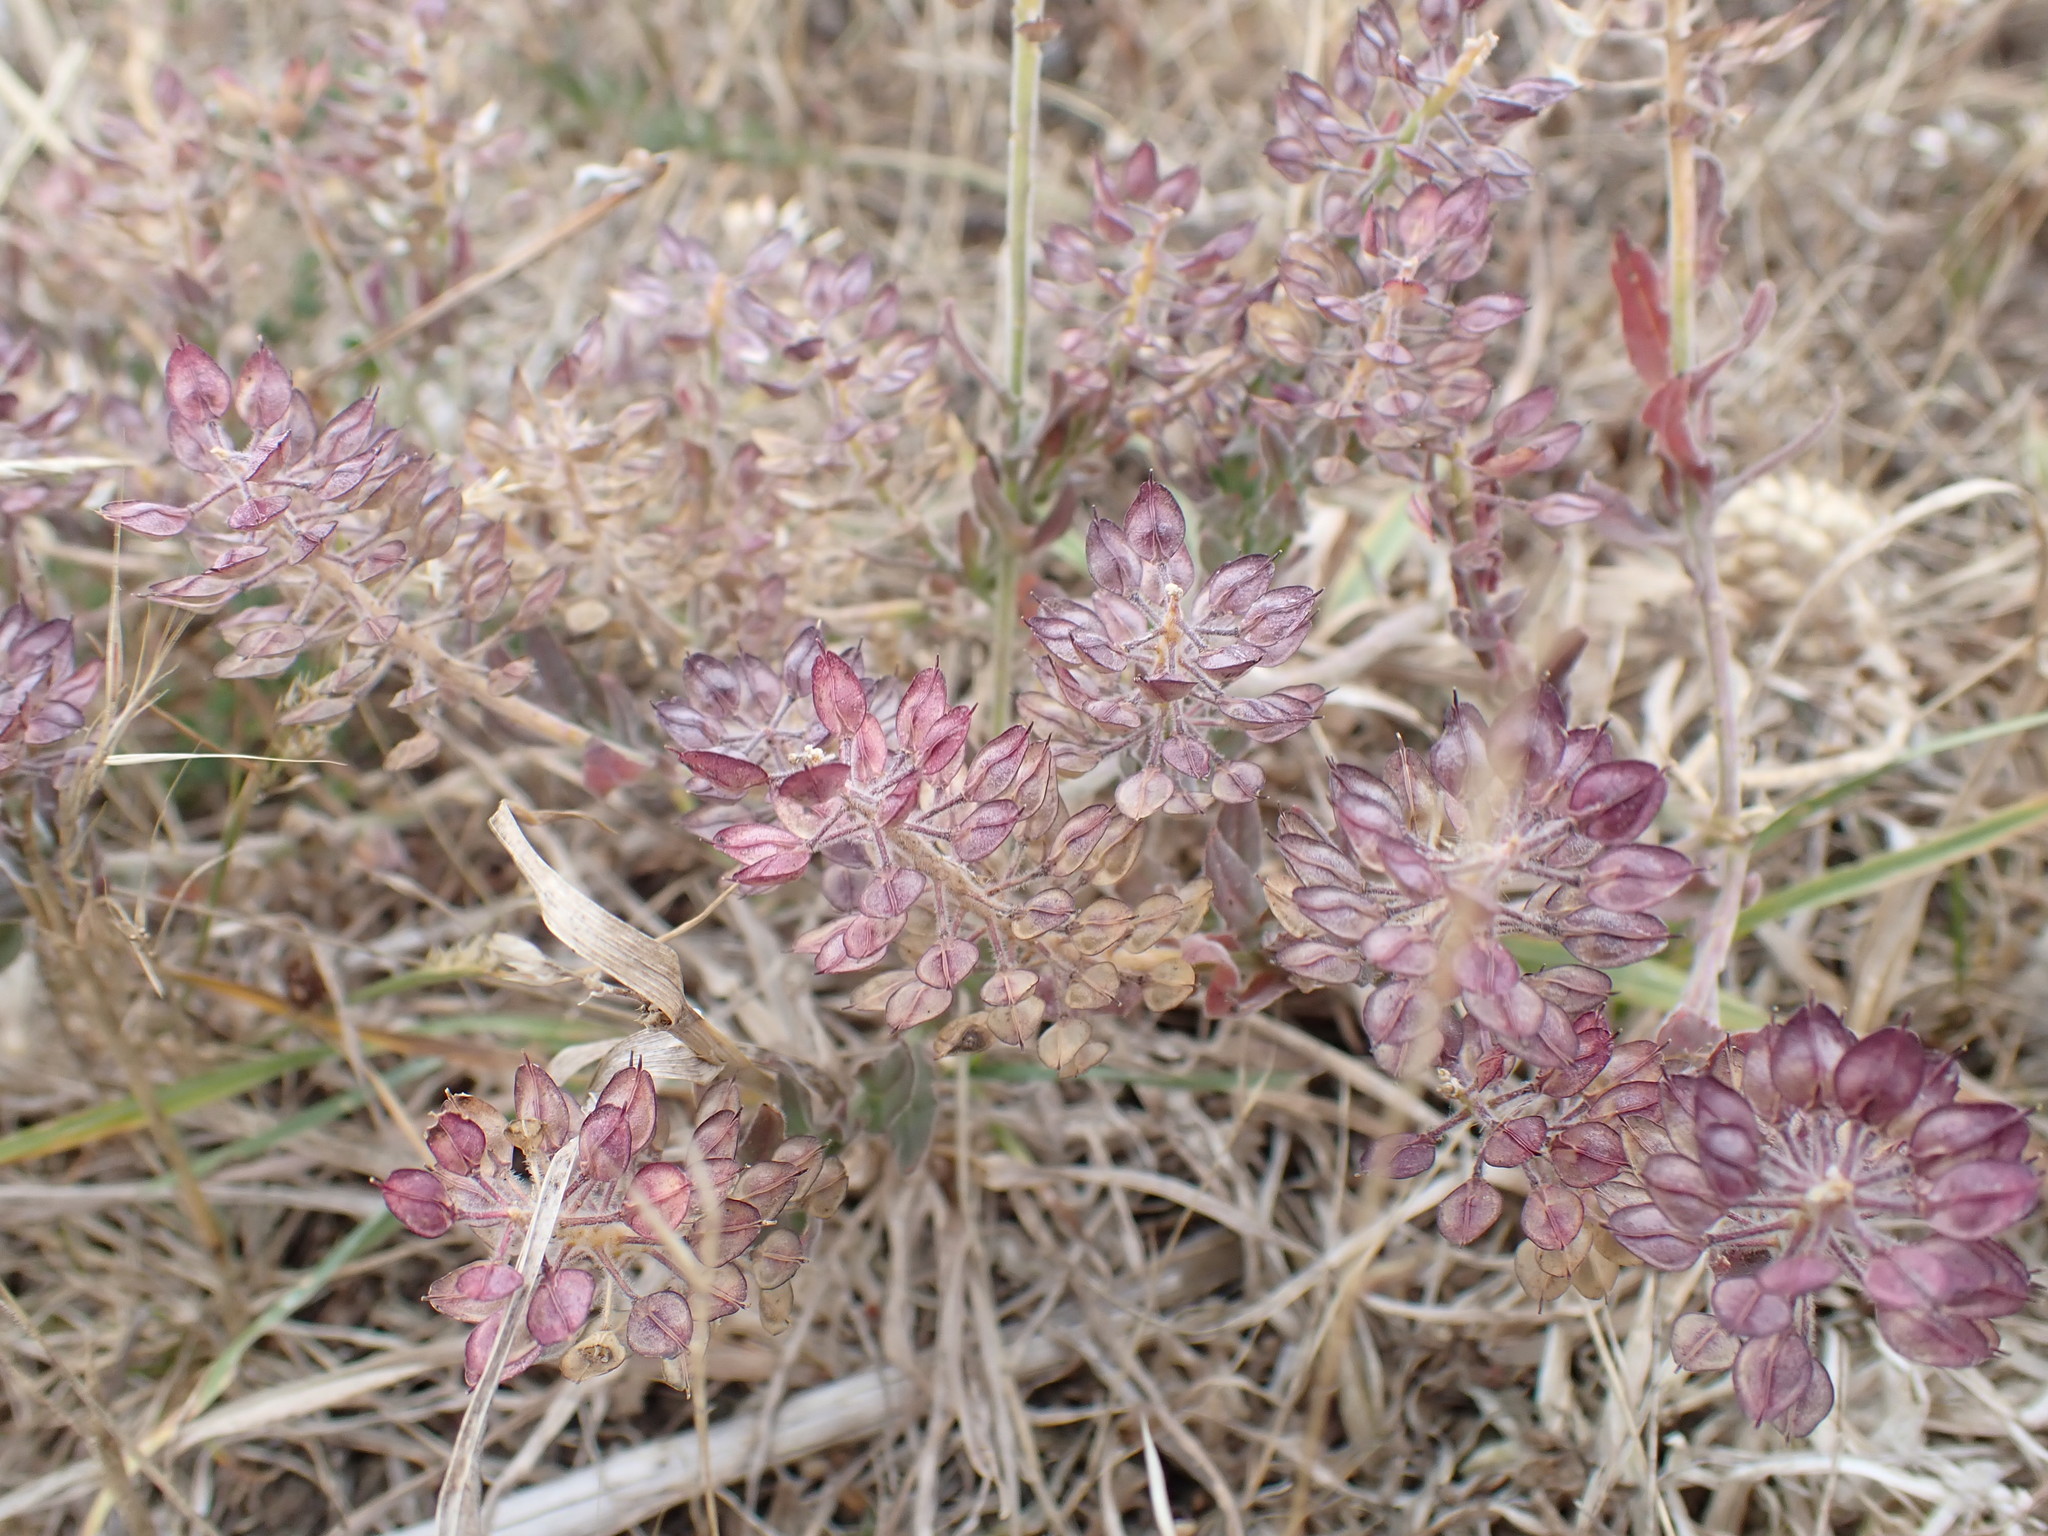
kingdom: Plantae
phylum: Tracheophyta
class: Magnoliopsida
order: Brassicales
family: Brassicaceae
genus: Lepidium
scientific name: Lepidium heterophyllum
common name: Smith's pepperwort
